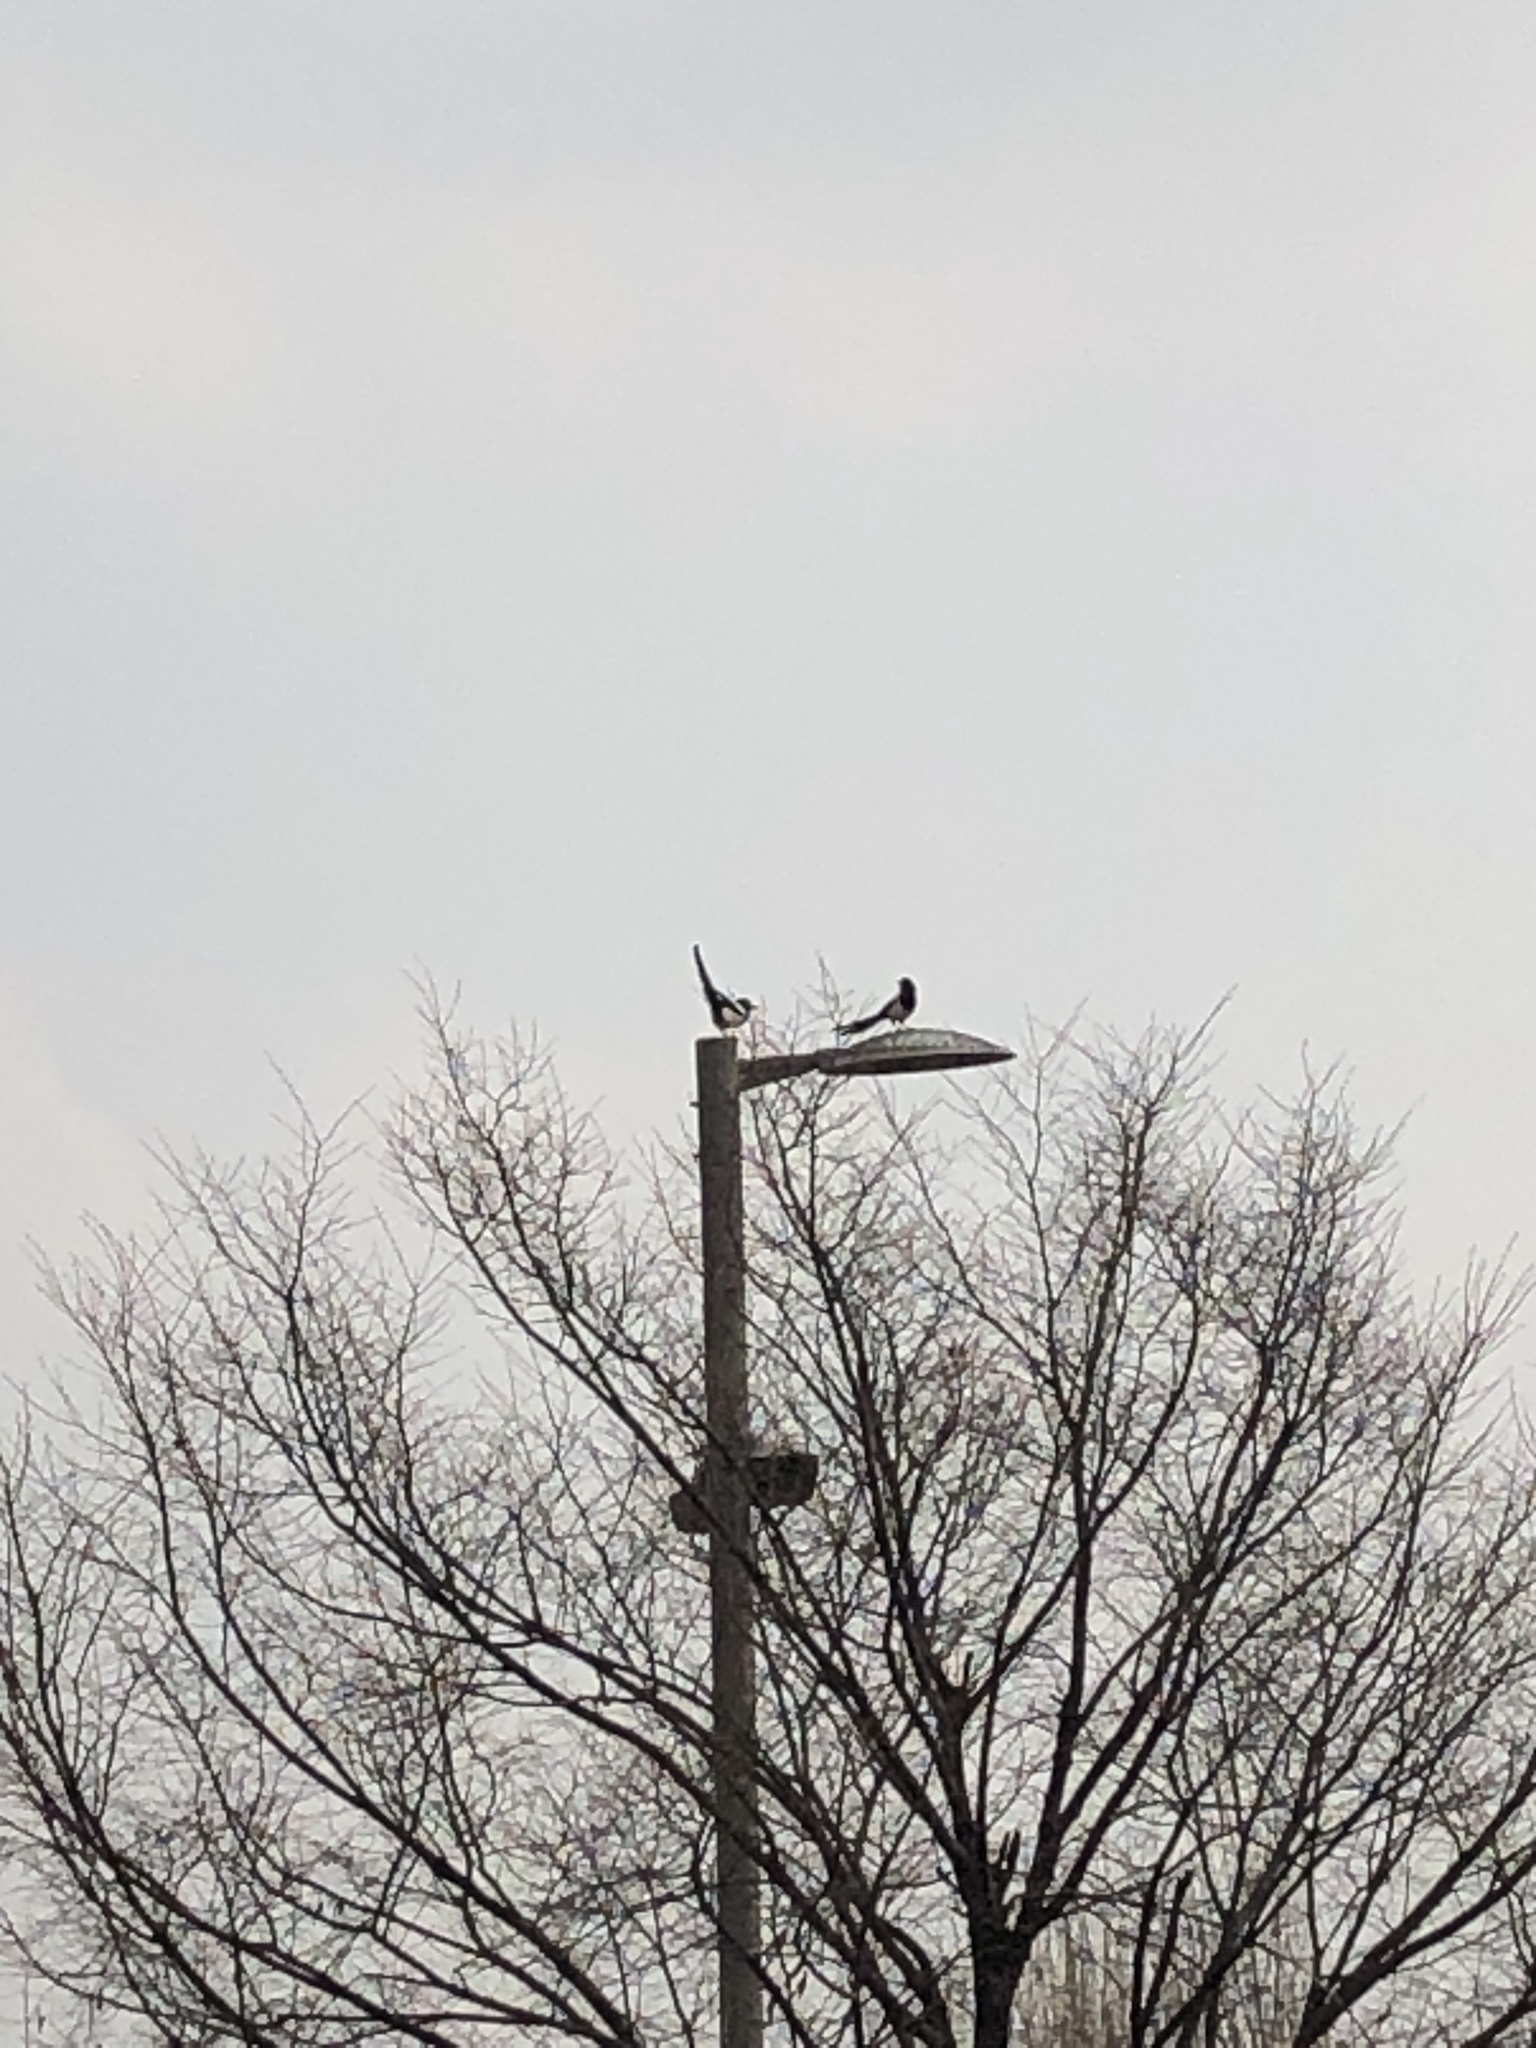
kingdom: Animalia
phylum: Chordata
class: Aves
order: Passeriformes
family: Corvidae
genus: Pica
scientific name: Pica serica
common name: Oriental magpie
